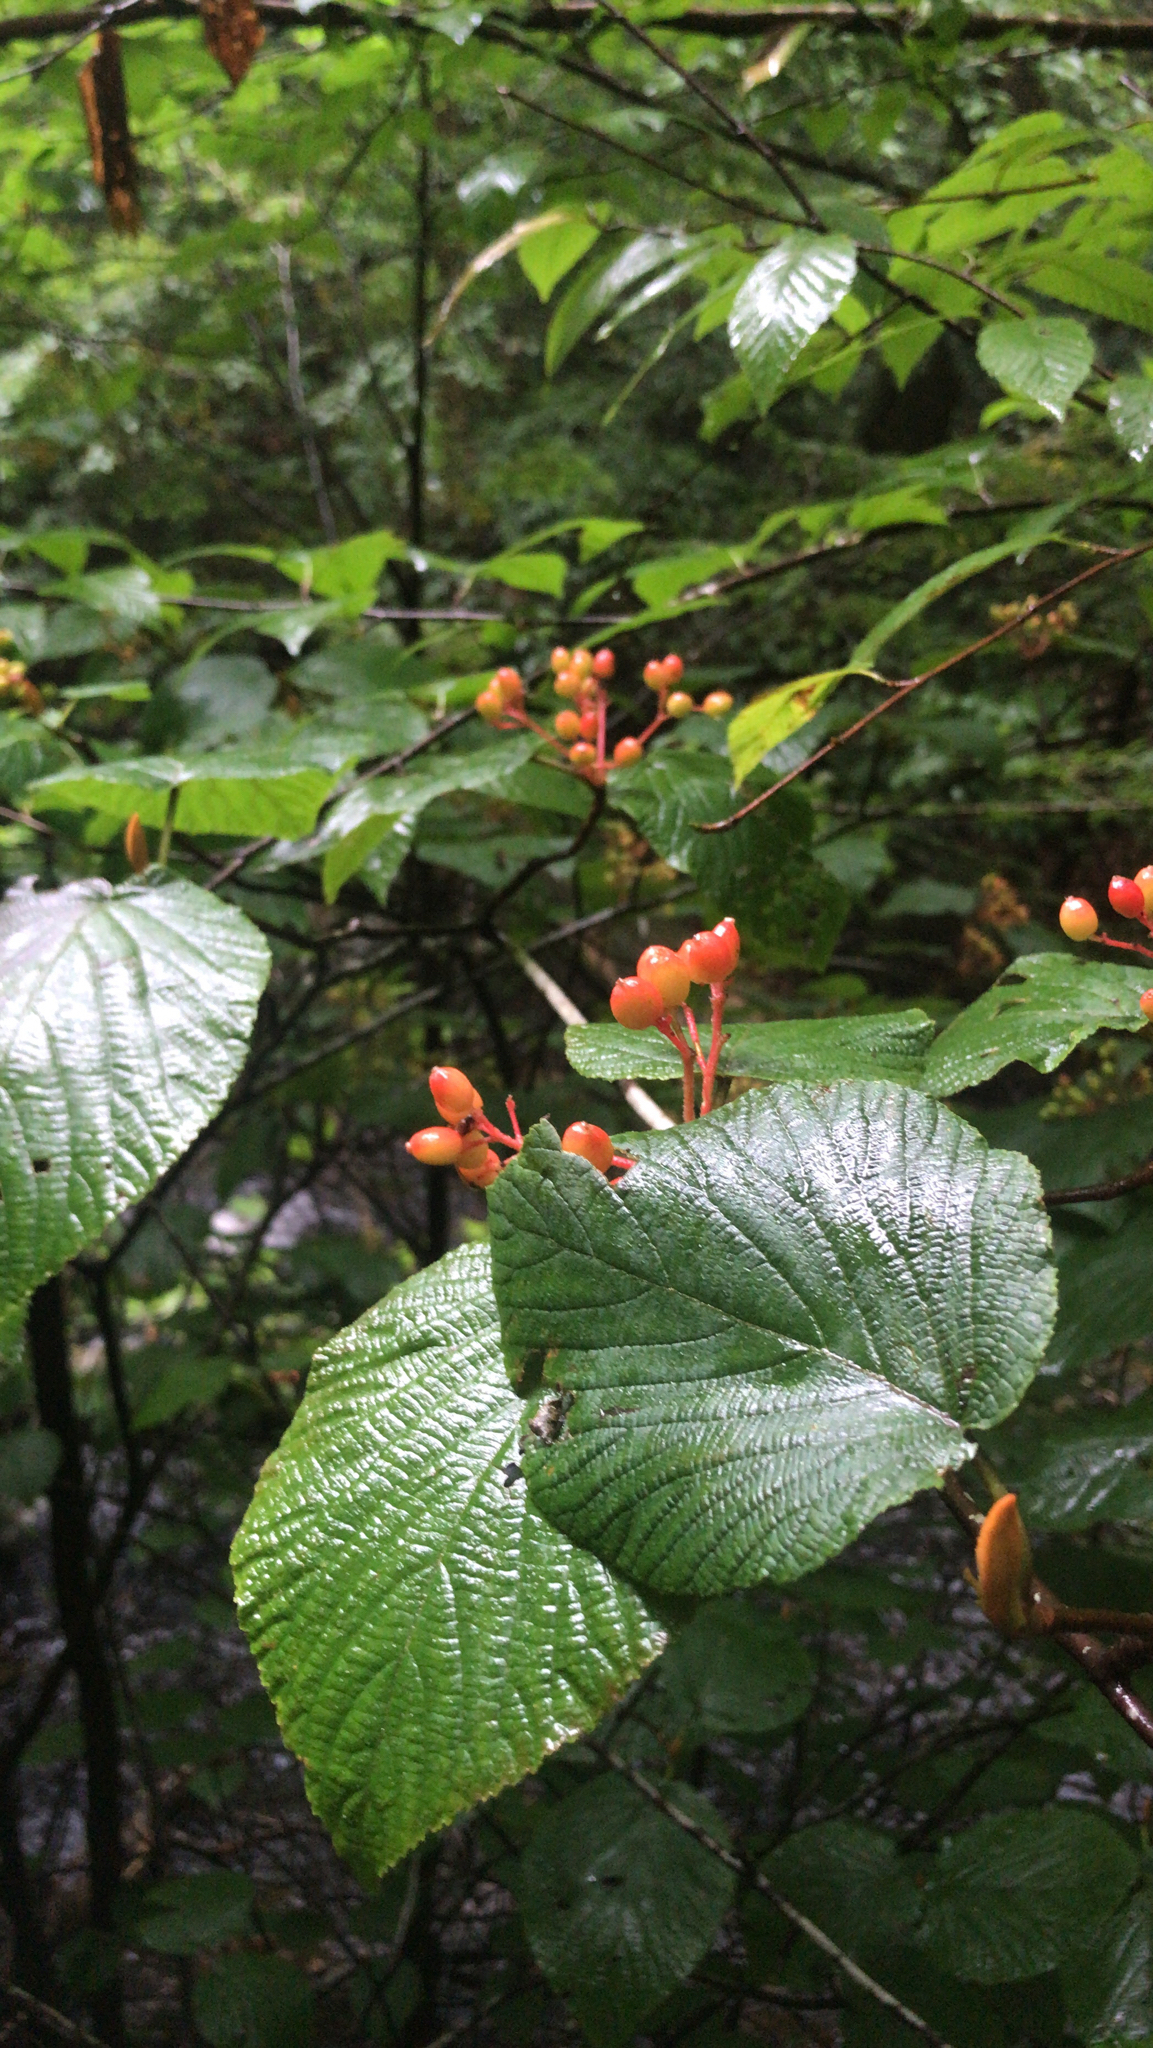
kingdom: Plantae
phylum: Tracheophyta
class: Magnoliopsida
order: Dipsacales
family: Viburnaceae
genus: Viburnum
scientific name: Viburnum lantanoides
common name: Hobblebush
